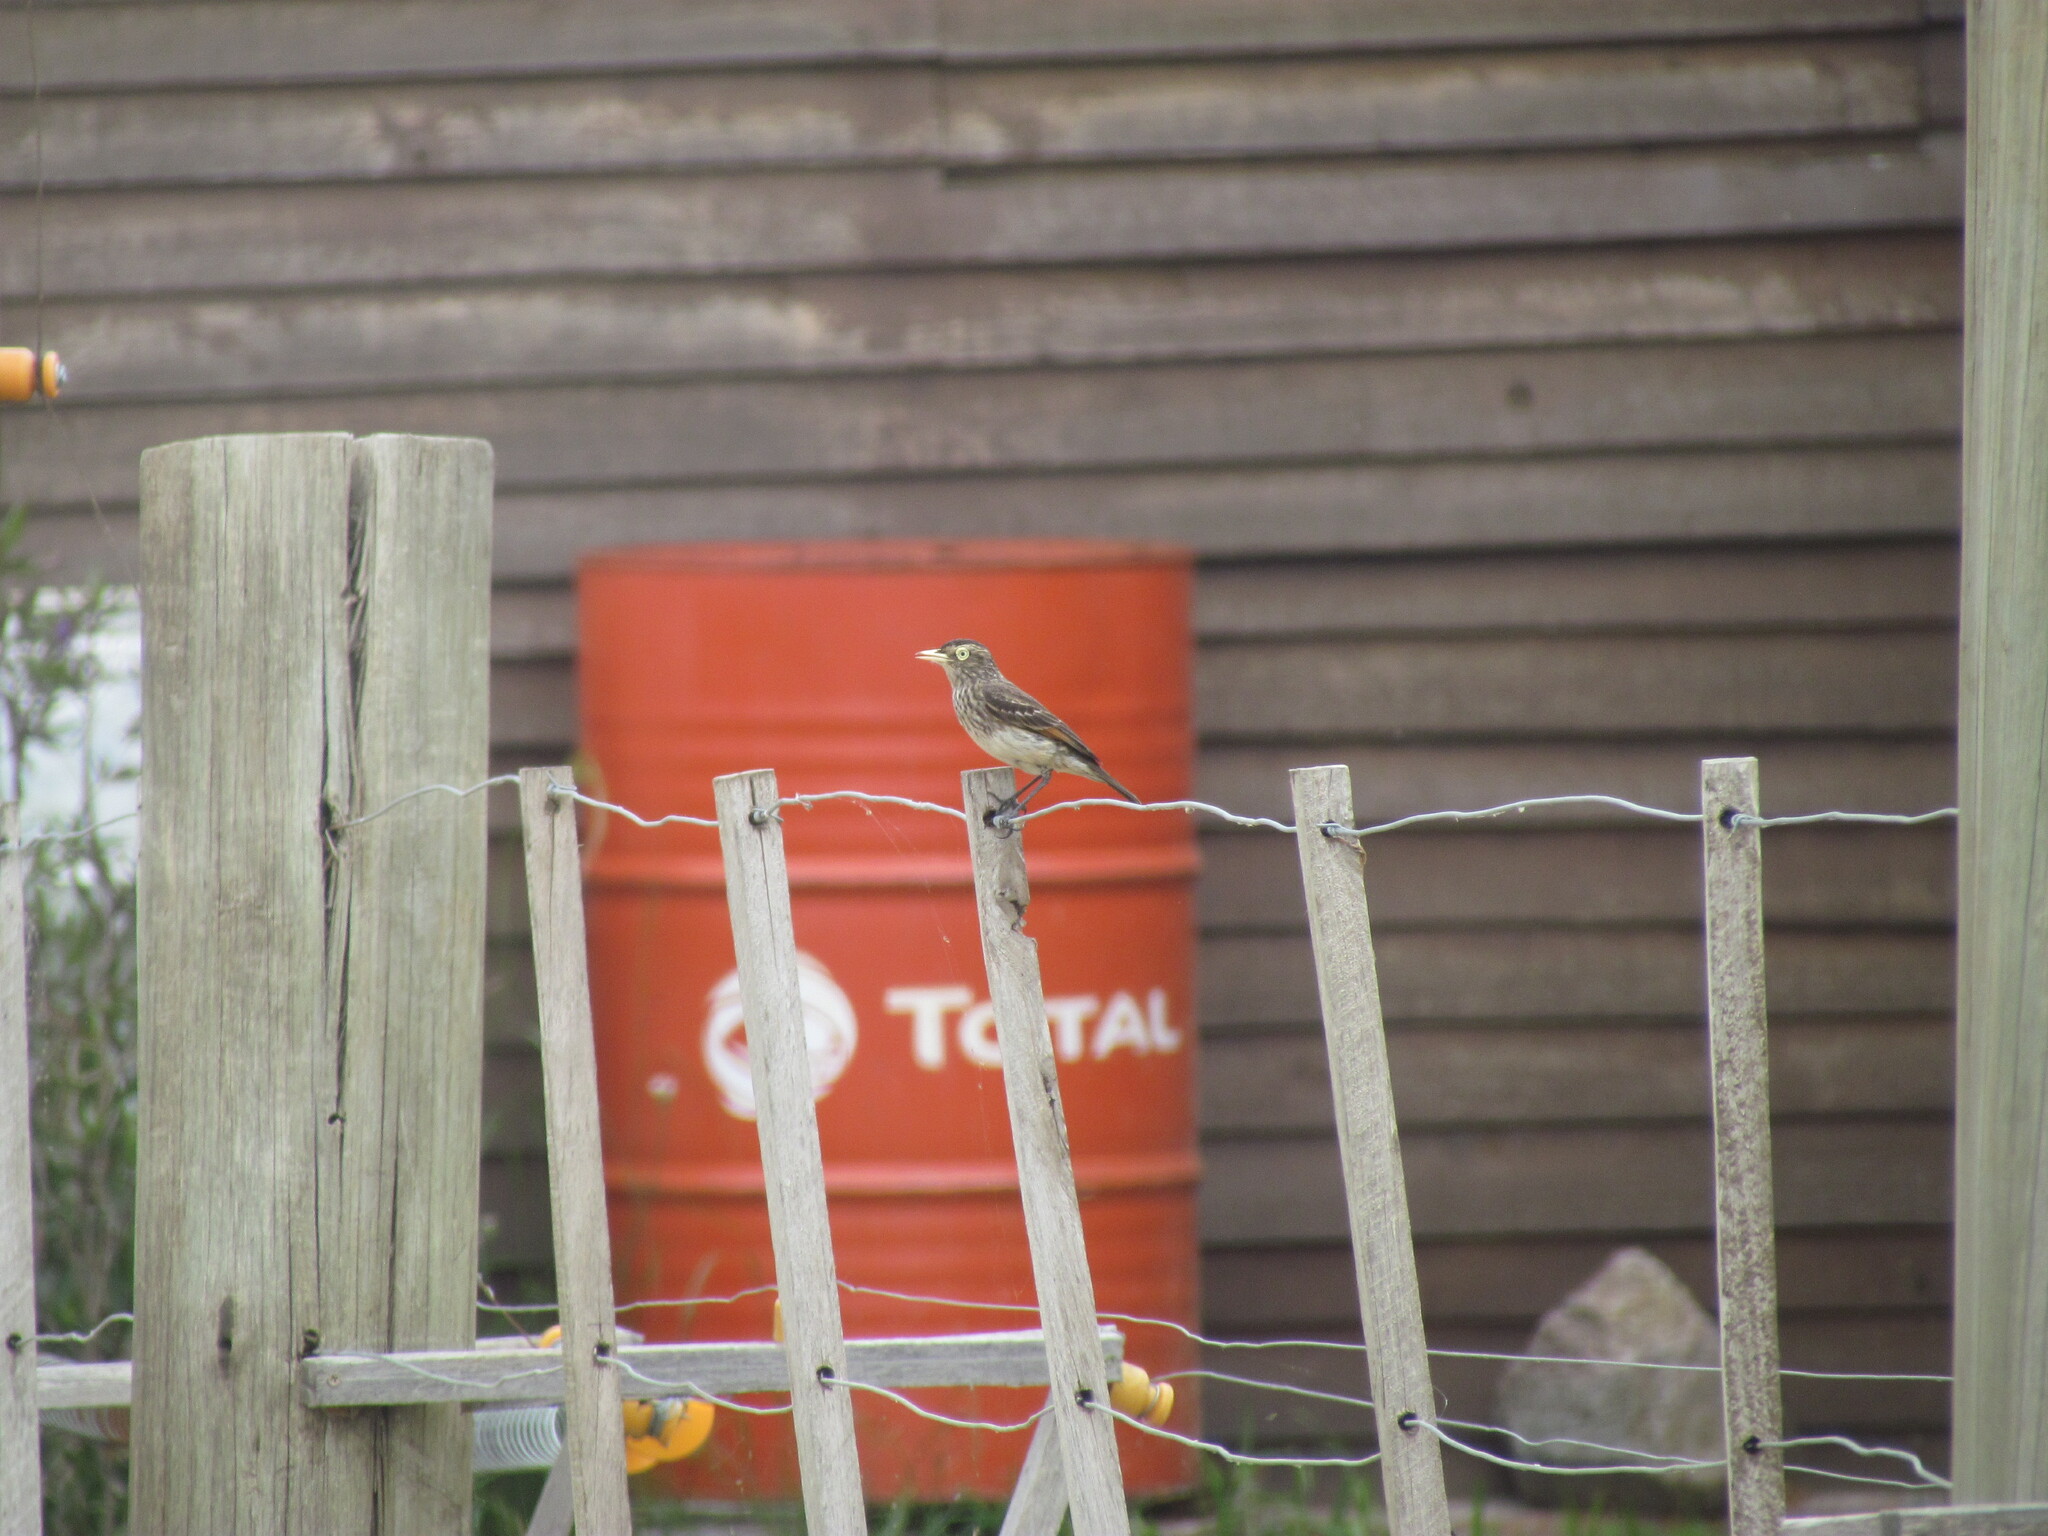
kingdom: Animalia
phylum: Chordata
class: Aves
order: Passeriformes
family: Tyrannidae
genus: Hymenops
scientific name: Hymenops perspicillatus
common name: Spectacled tyrant
